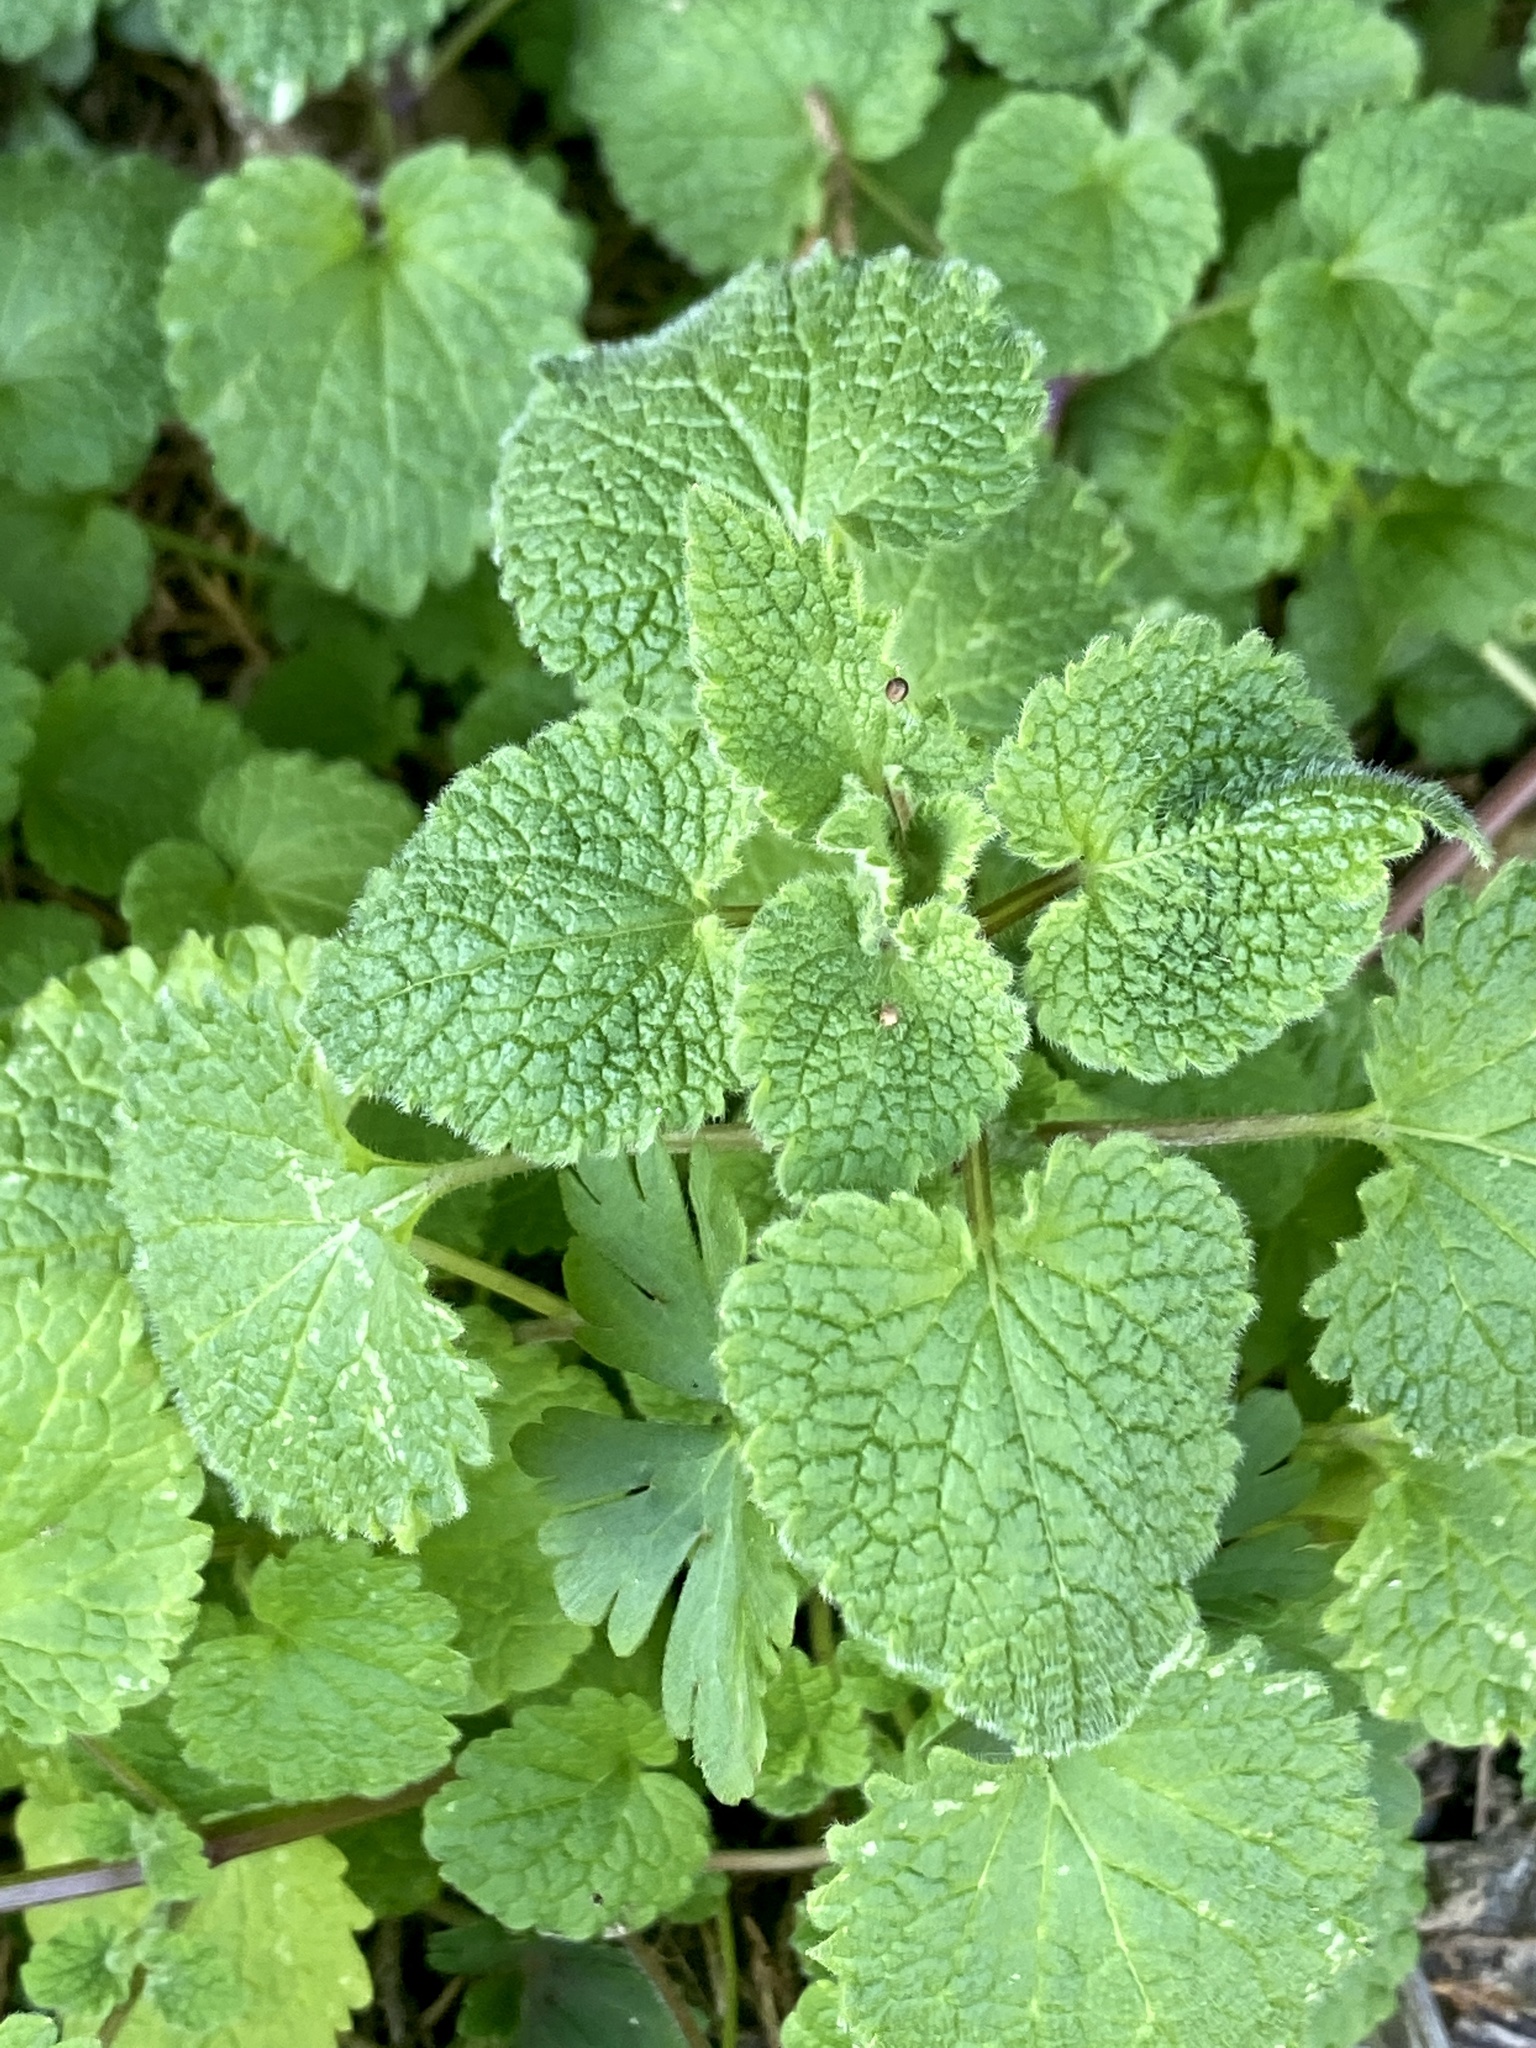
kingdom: Plantae
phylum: Tracheophyta
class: Magnoliopsida
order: Lamiales
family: Lamiaceae
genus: Lamium
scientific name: Lamium purpureum
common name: Red dead-nettle
